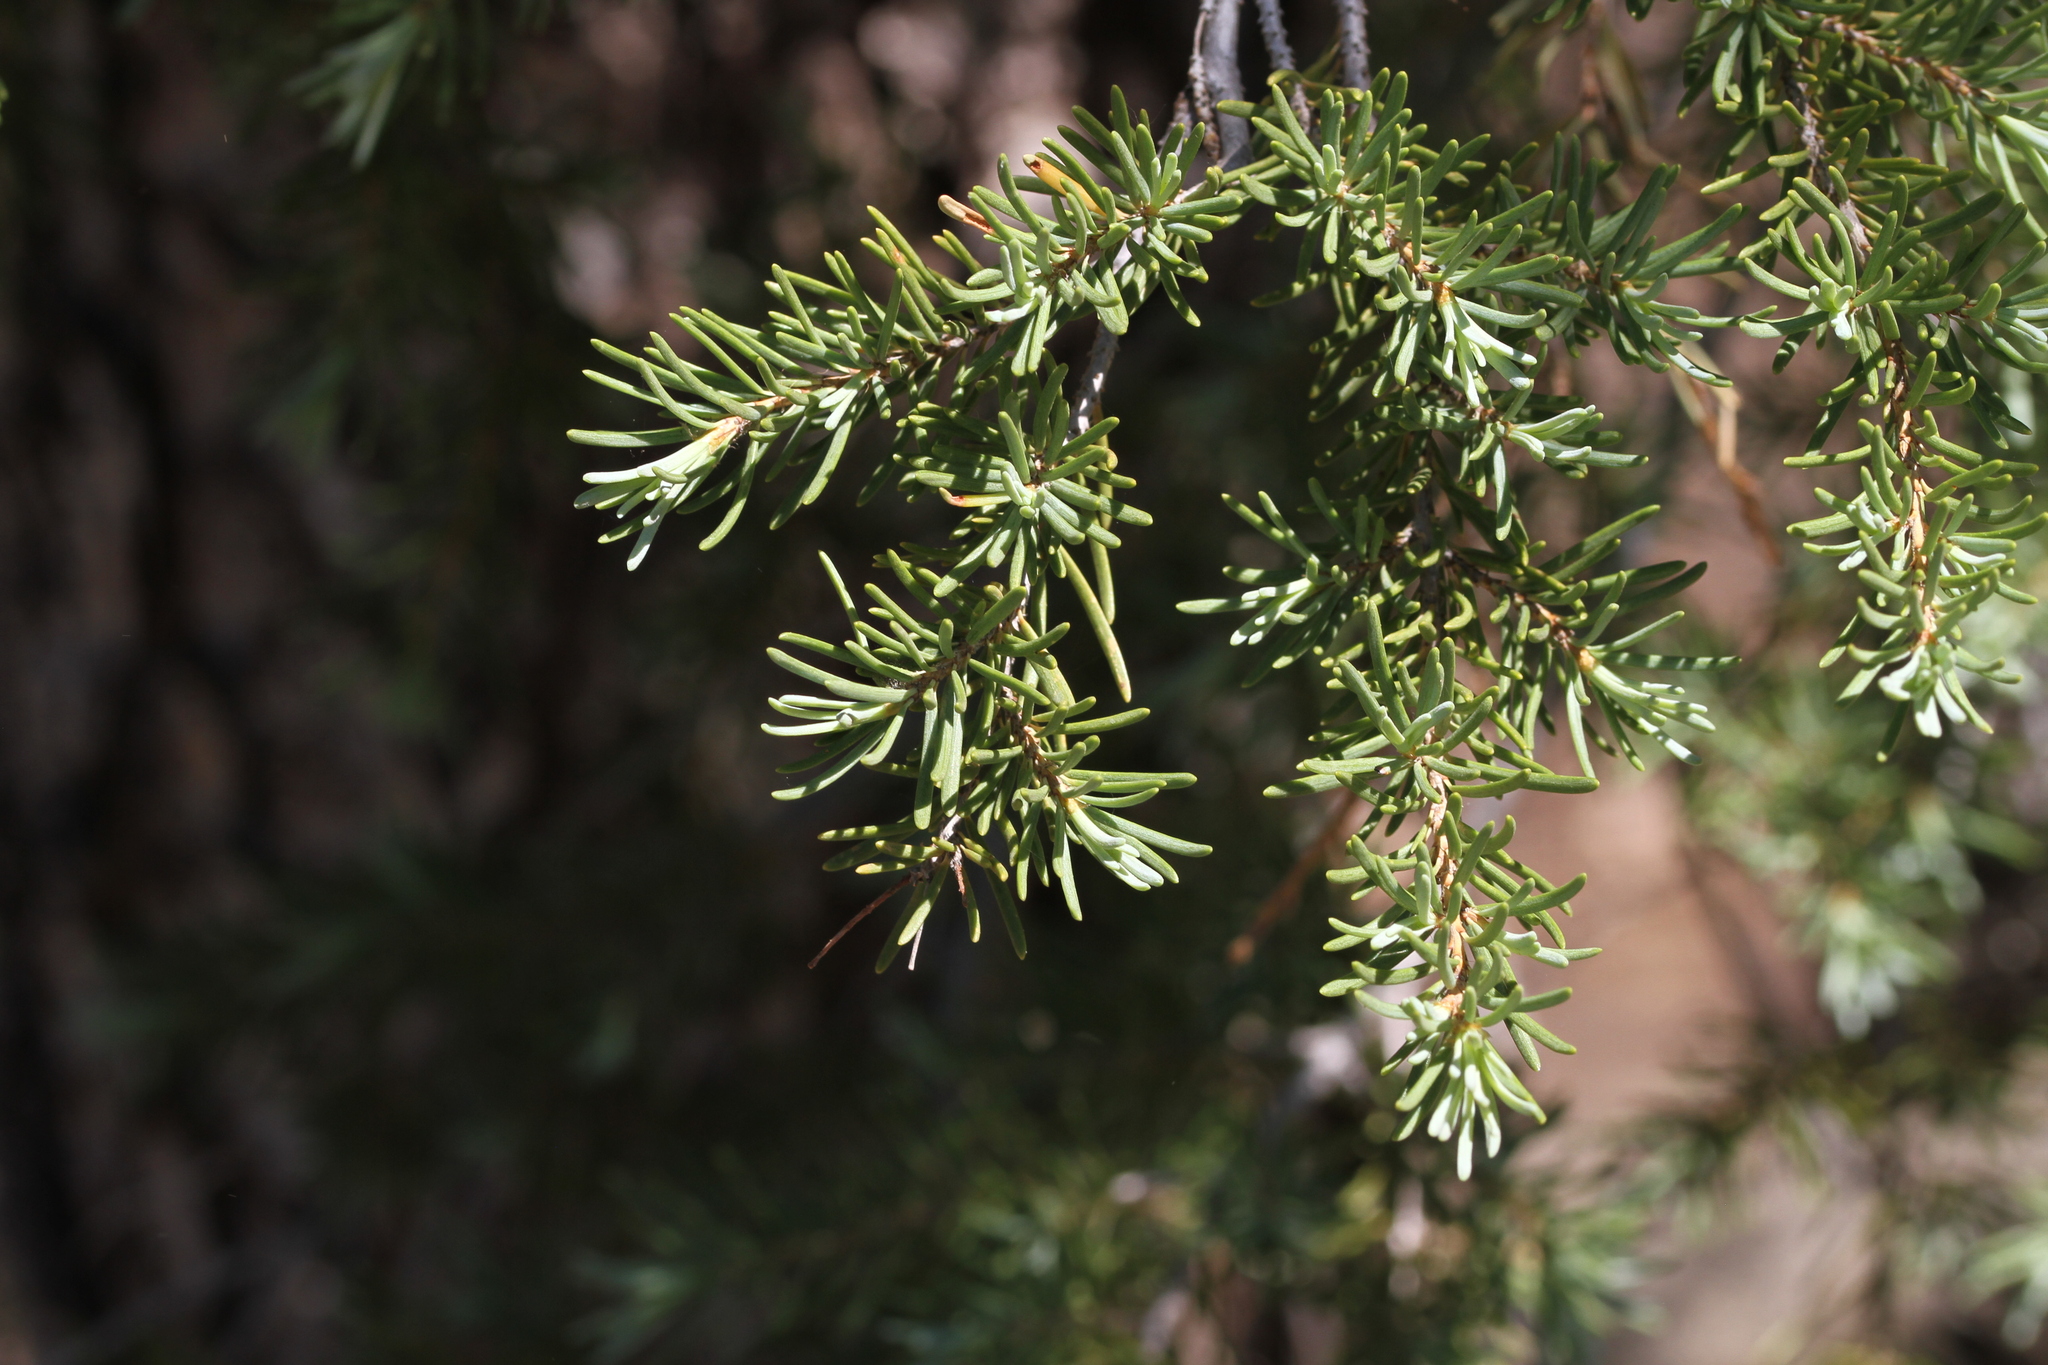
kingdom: Plantae
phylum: Tracheophyta
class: Pinopsida
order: Pinales
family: Pinaceae
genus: Tsuga
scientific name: Tsuga mertensiana
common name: Mountain hemlock
